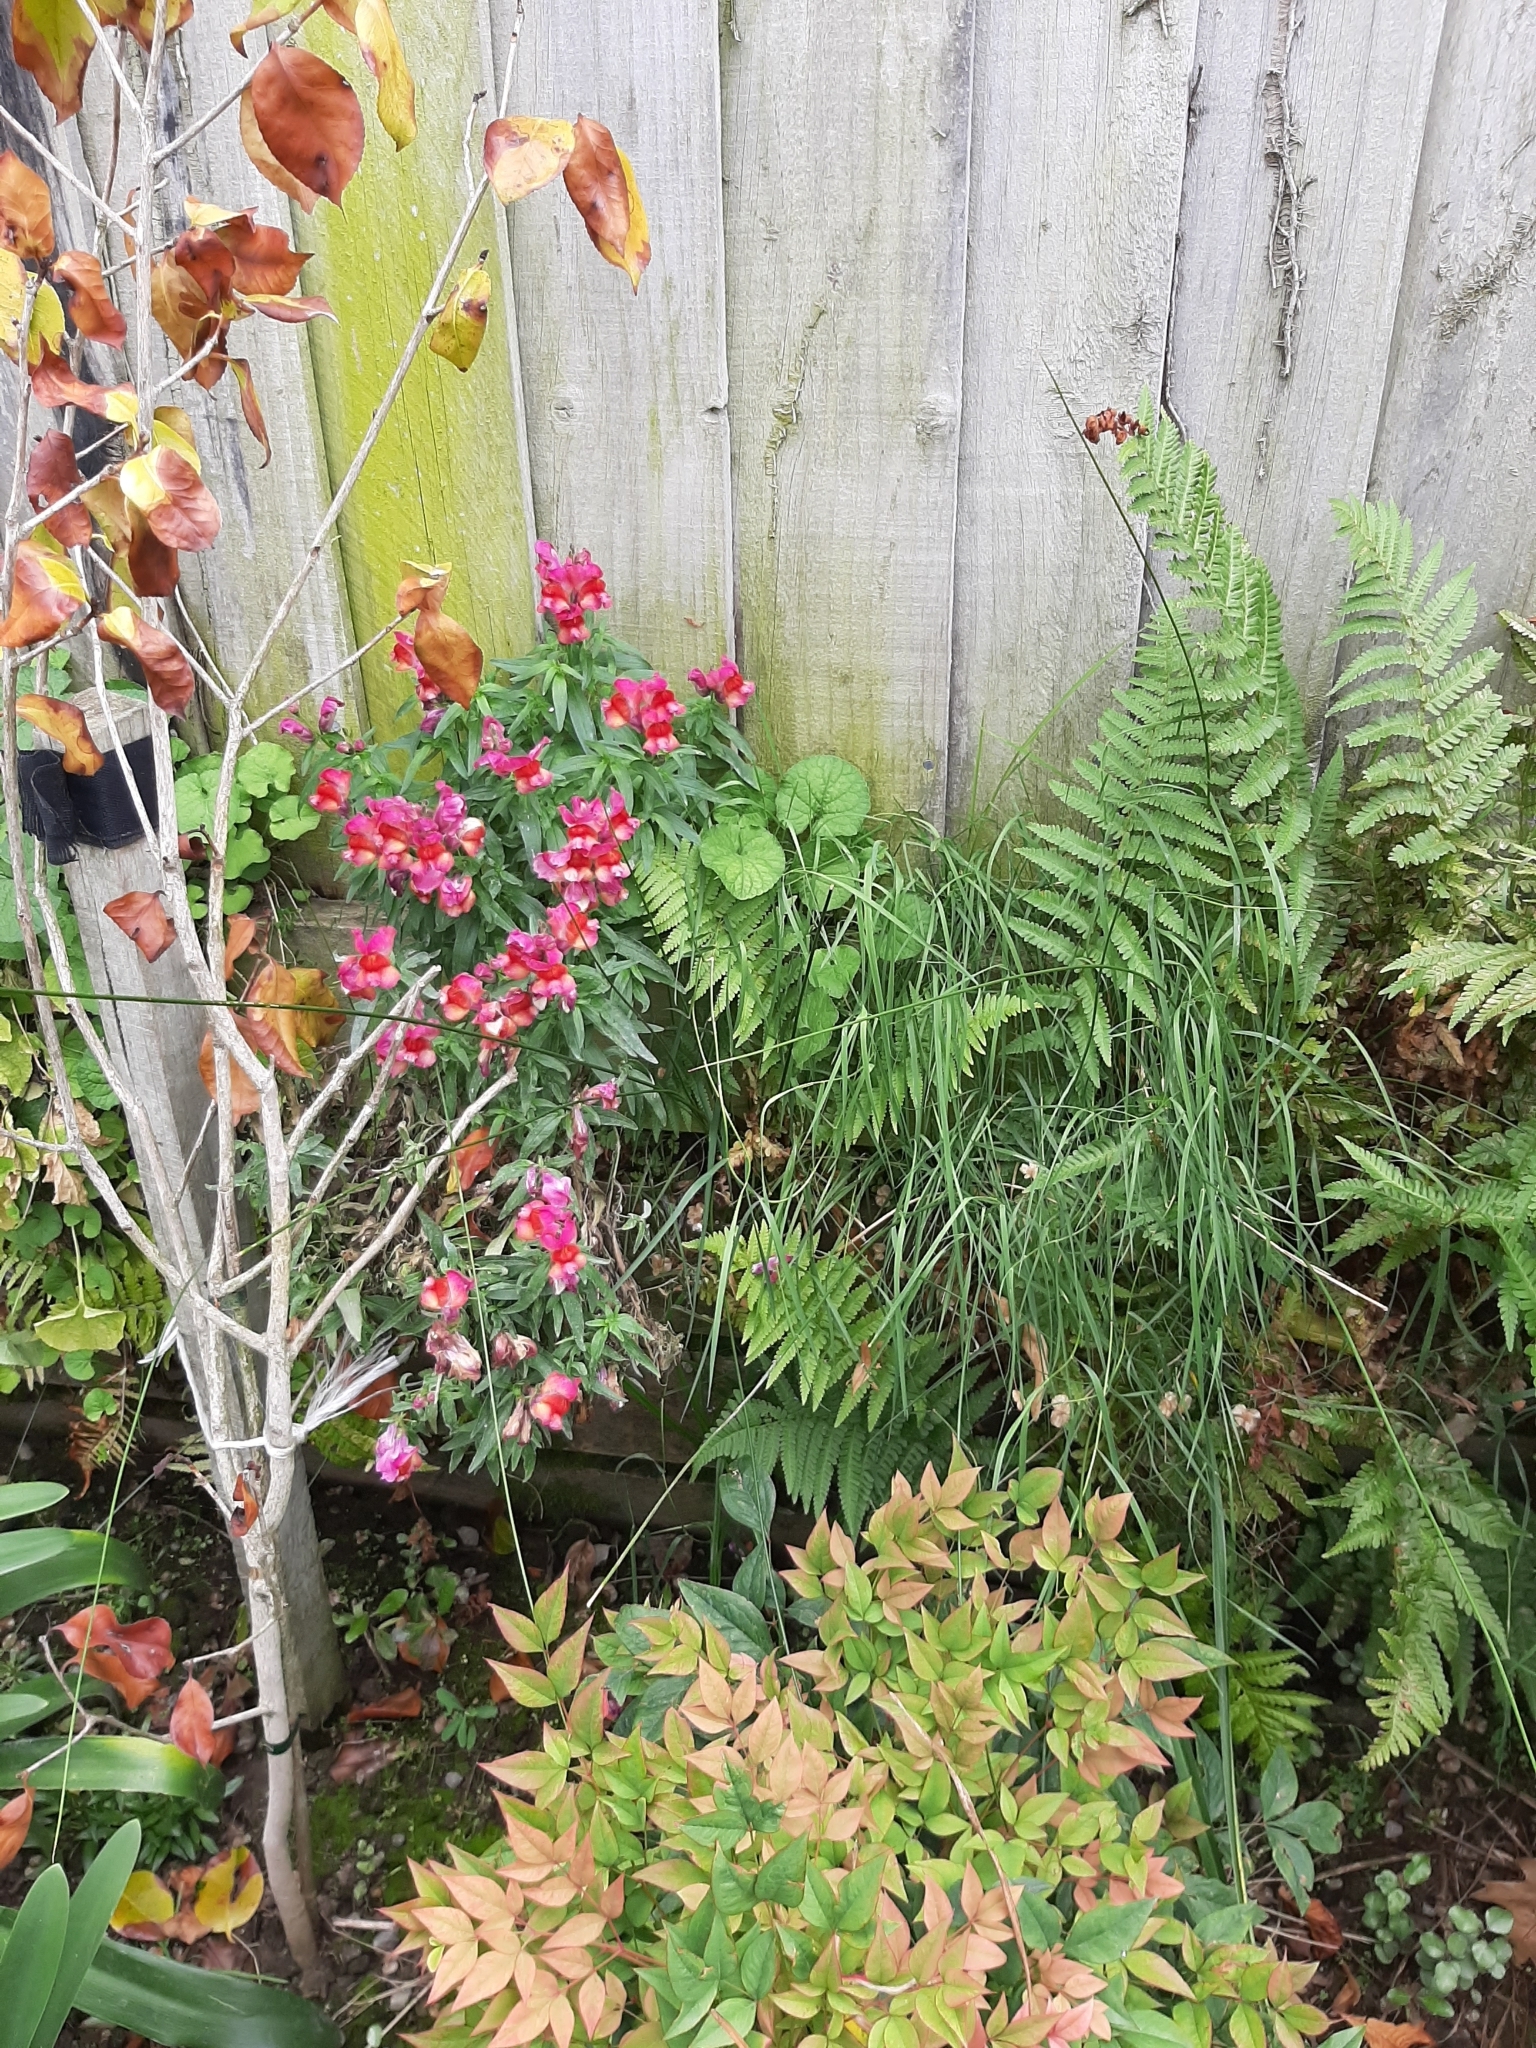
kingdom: Plantae
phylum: Tracheophyta
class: Liliopsida
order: Poales
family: Juncaceae
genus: Juncus
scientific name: Juncus edgariae
